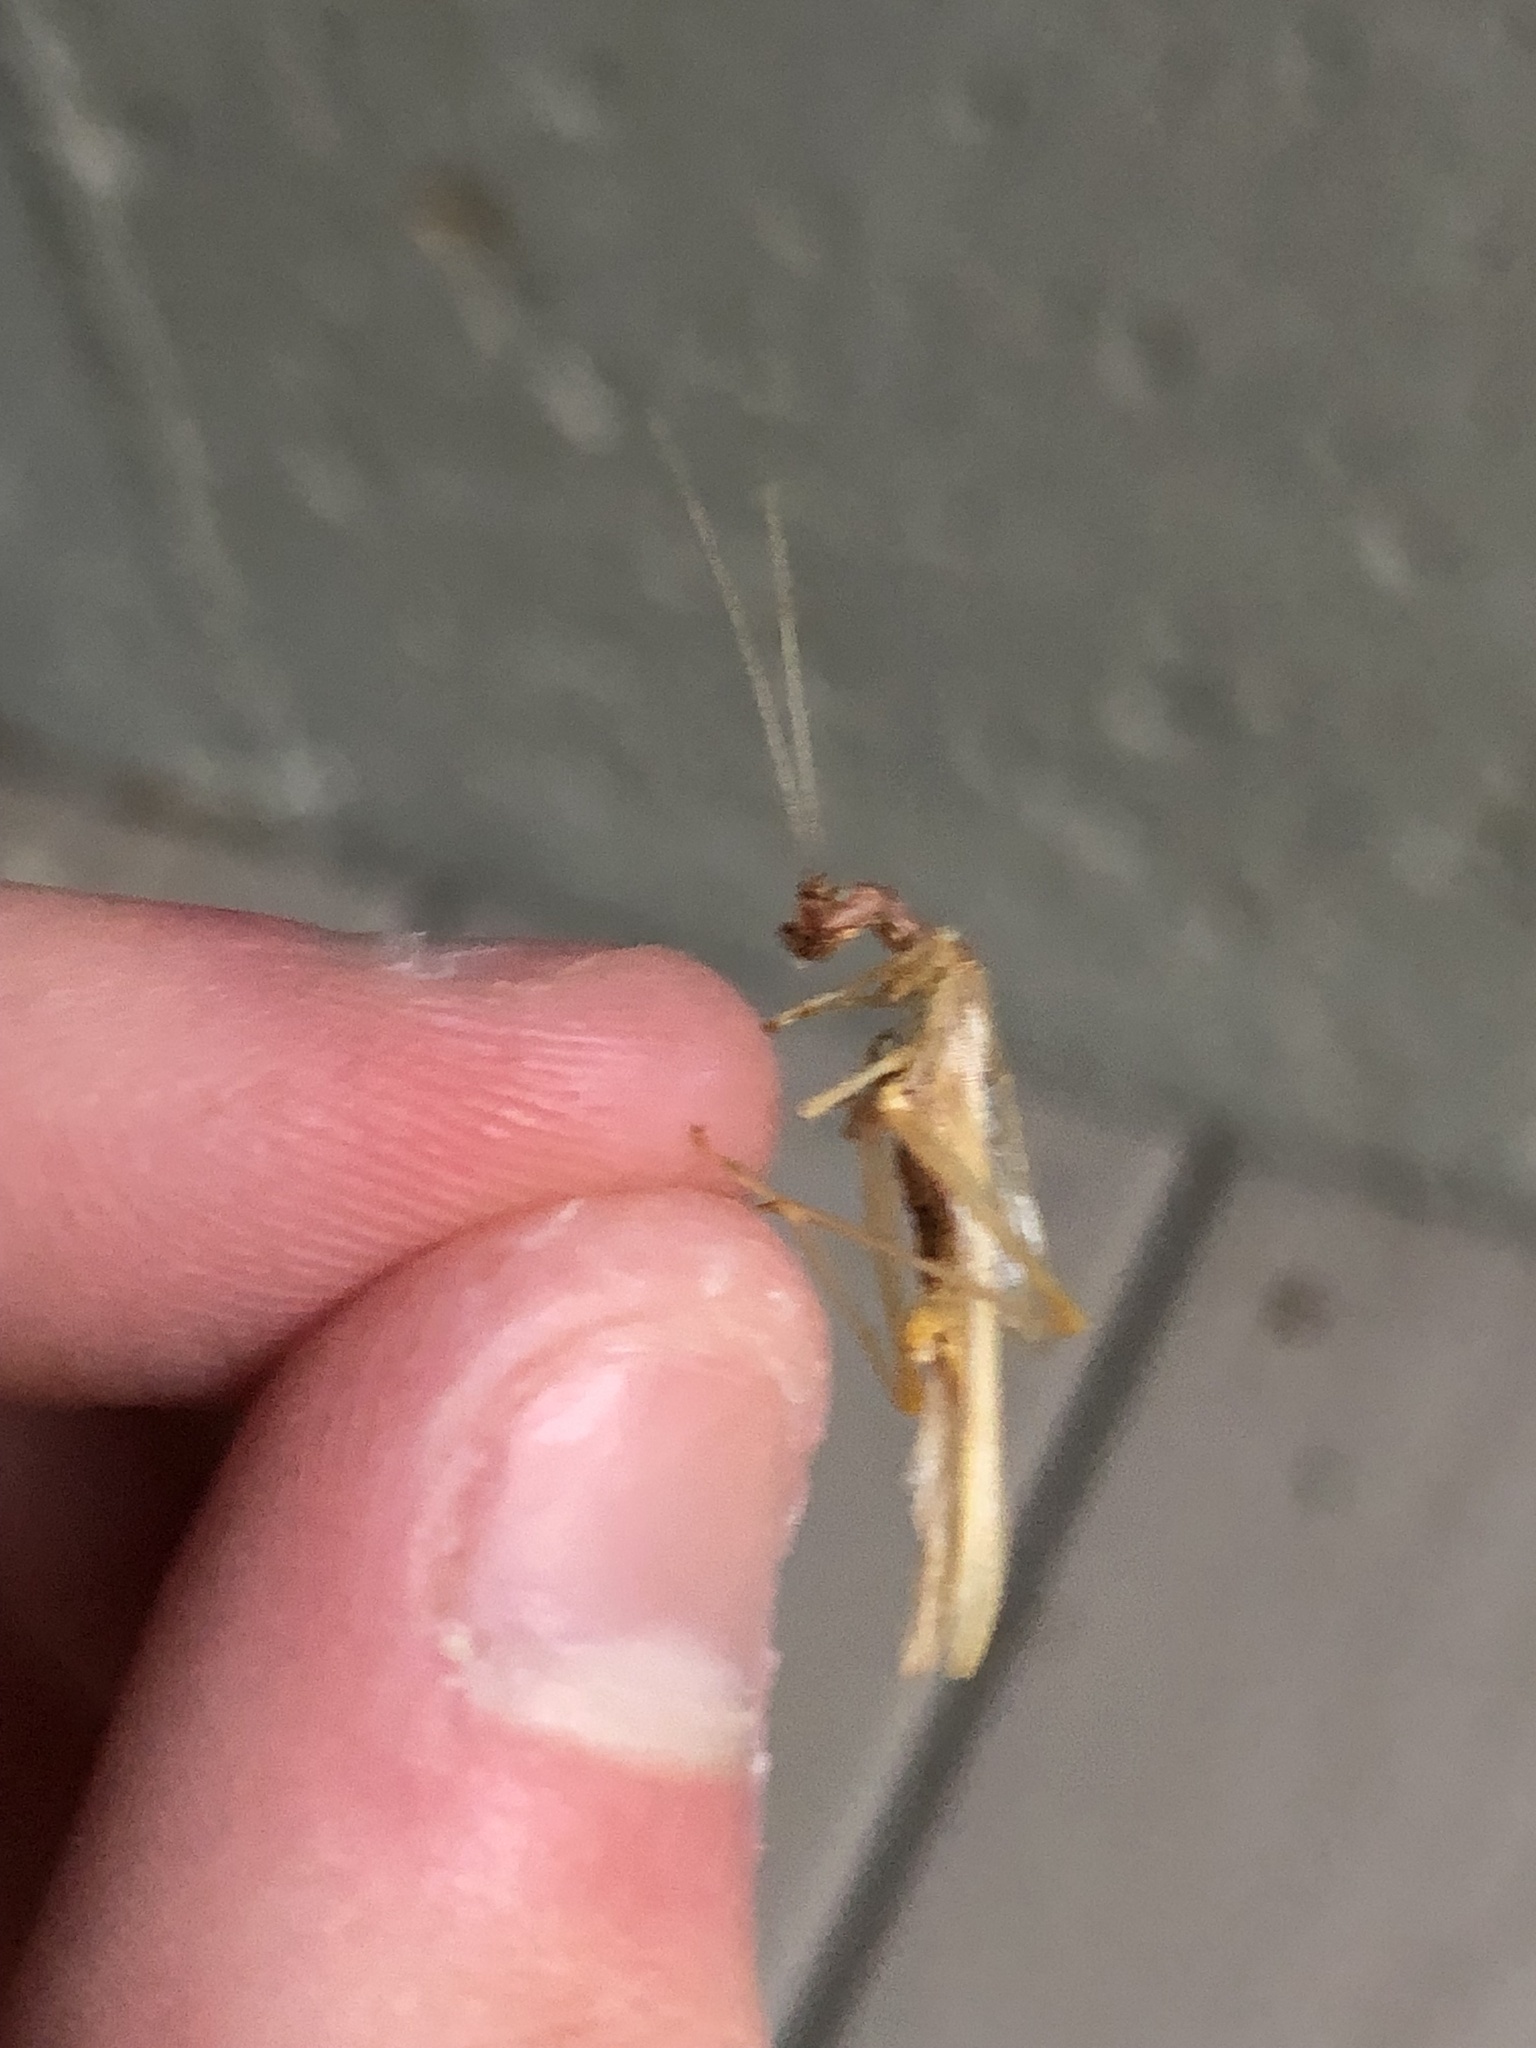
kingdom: Animalia
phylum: Arthropoda
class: Insecta
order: Orthoptera
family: Gryllidae
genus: Neoxabea
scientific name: Neoxabea bipunctata
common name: Two-spotted tree cricket
